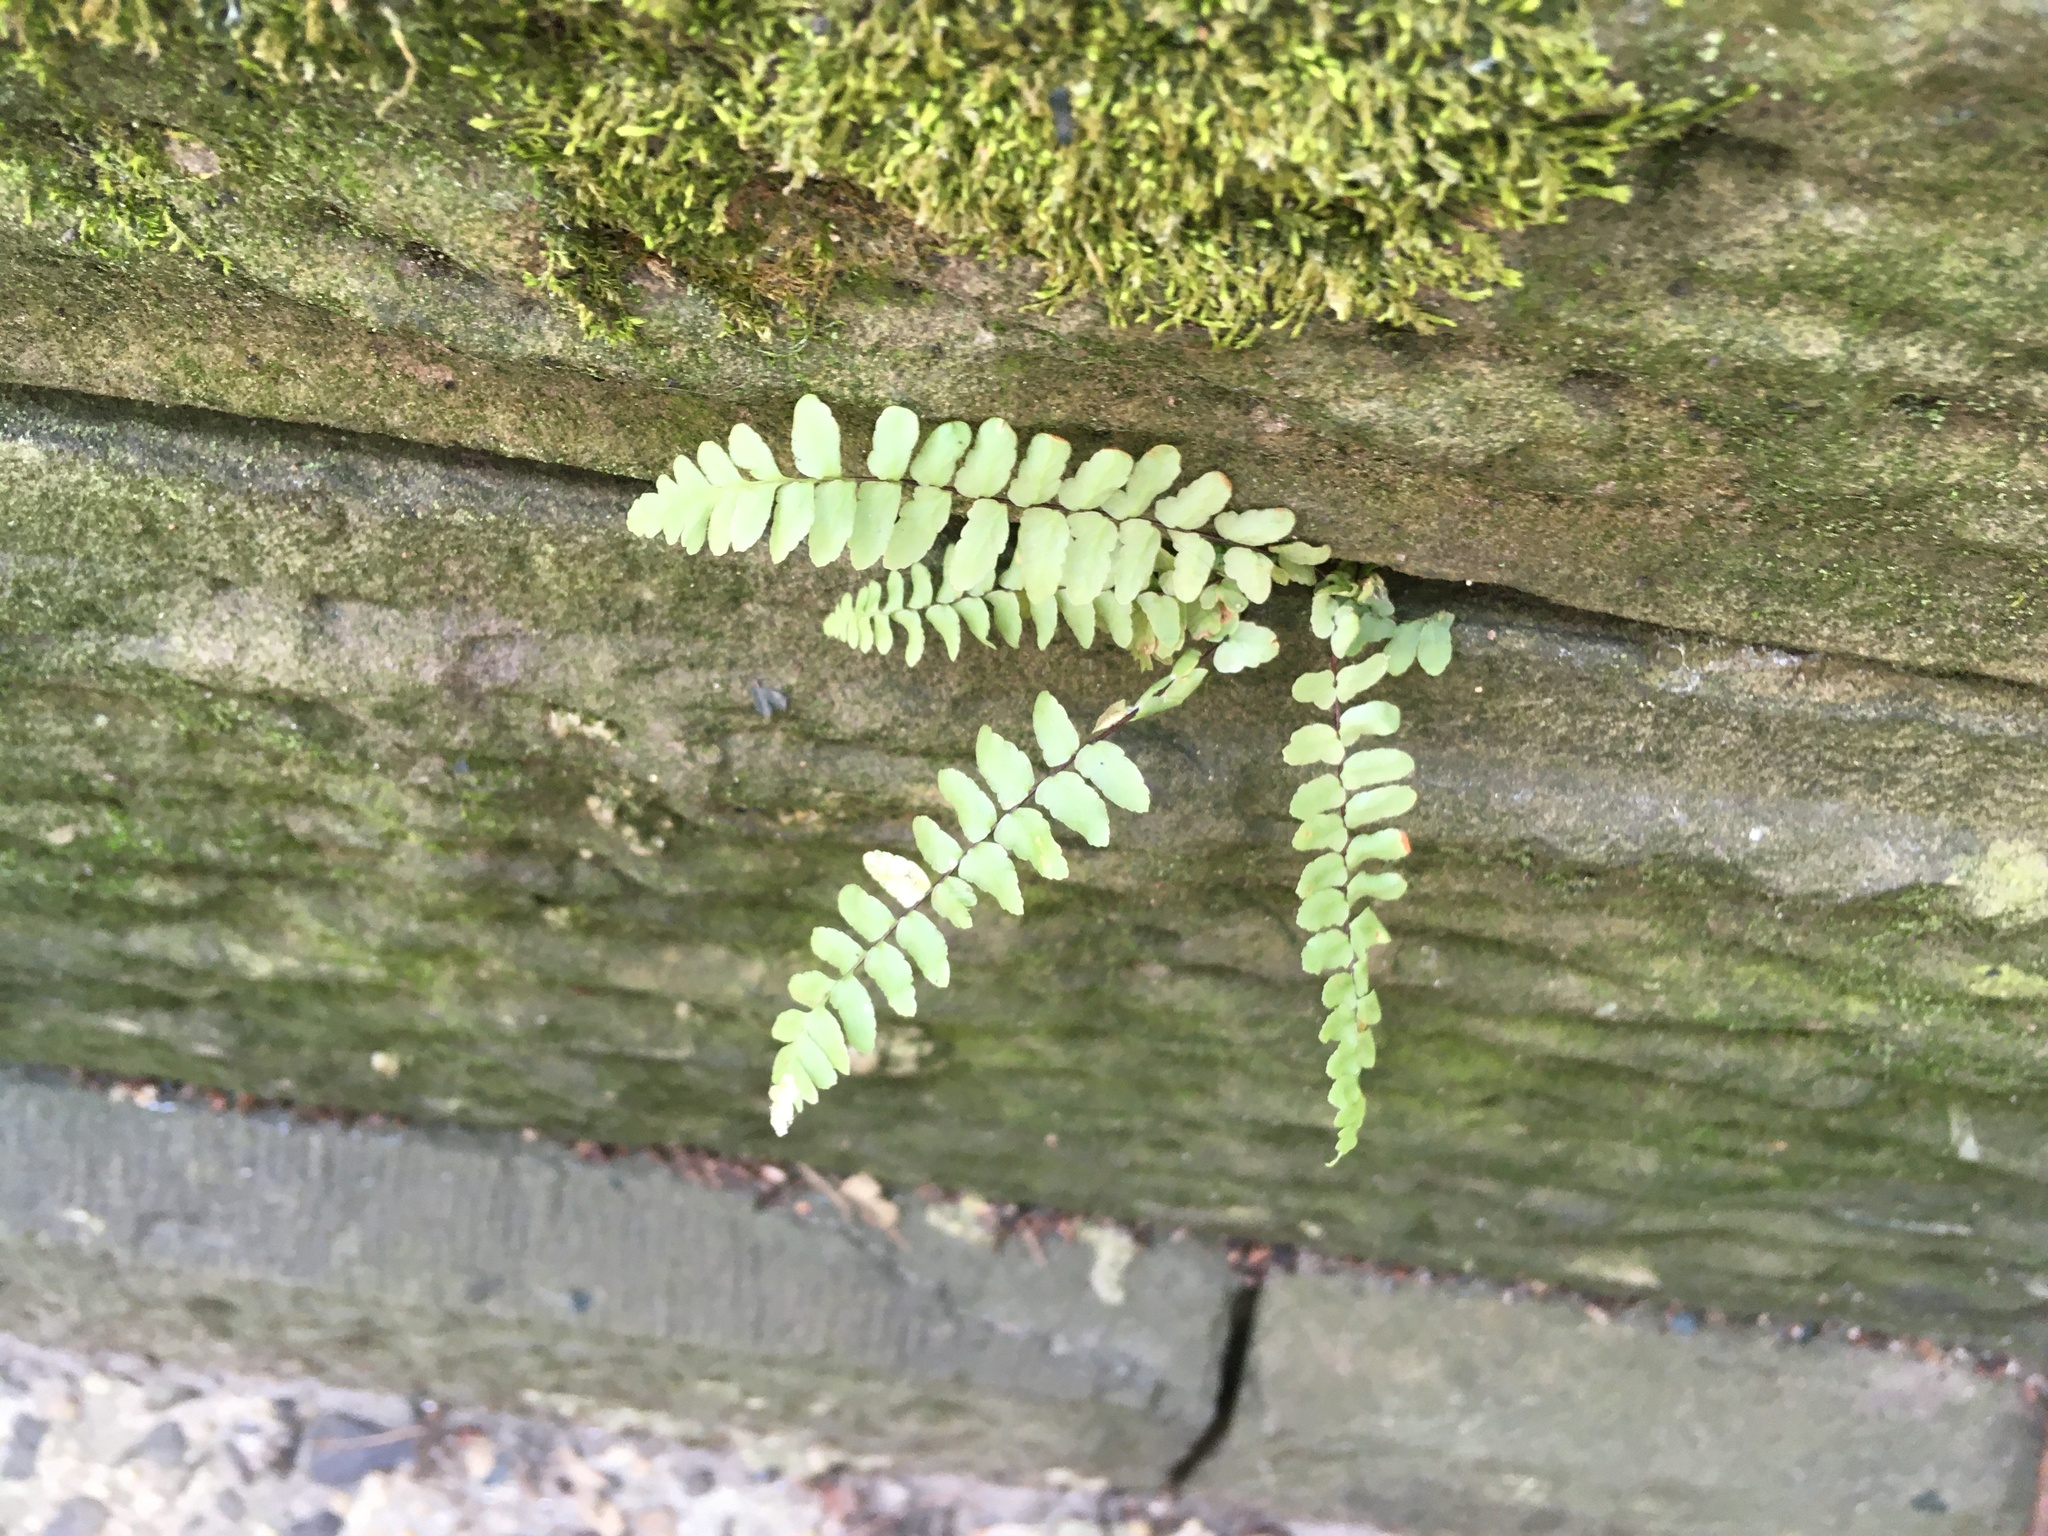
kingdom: Plantae
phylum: Tracheophyta
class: Polypodiopsida
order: Polypodiales
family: Aspleniaceae
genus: Asplenium
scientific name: Asplenium platyneuron
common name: Ebony spleenwort
